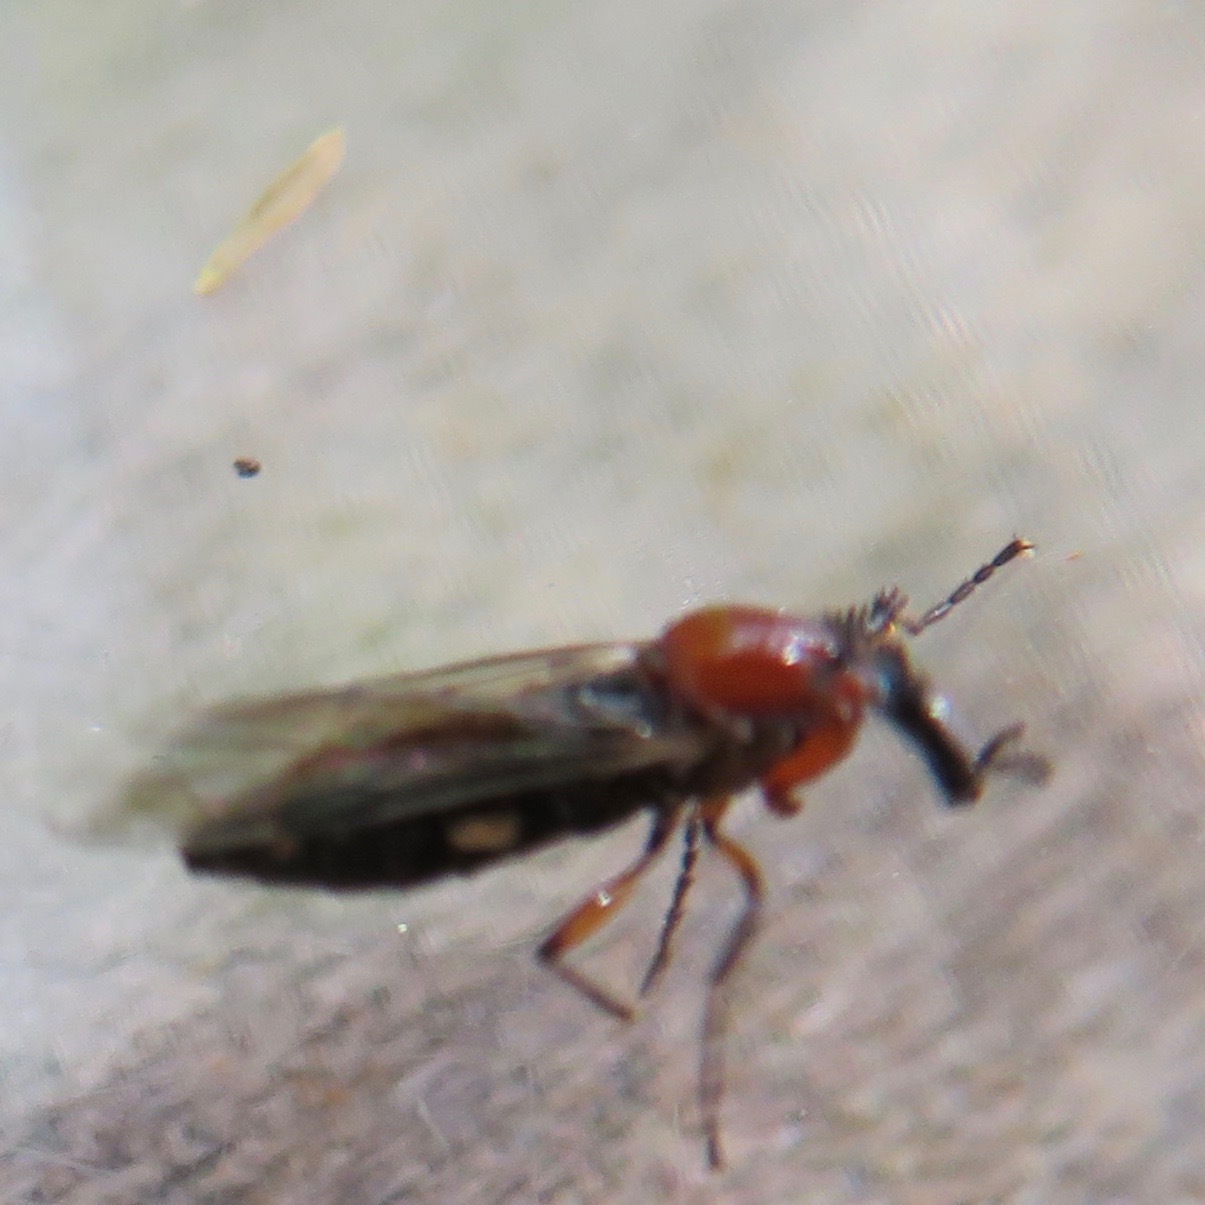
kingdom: Animalia
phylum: Arthropoda
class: Insecta
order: Diptera
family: Bibionidae
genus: Dilophus
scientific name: Dilophus
